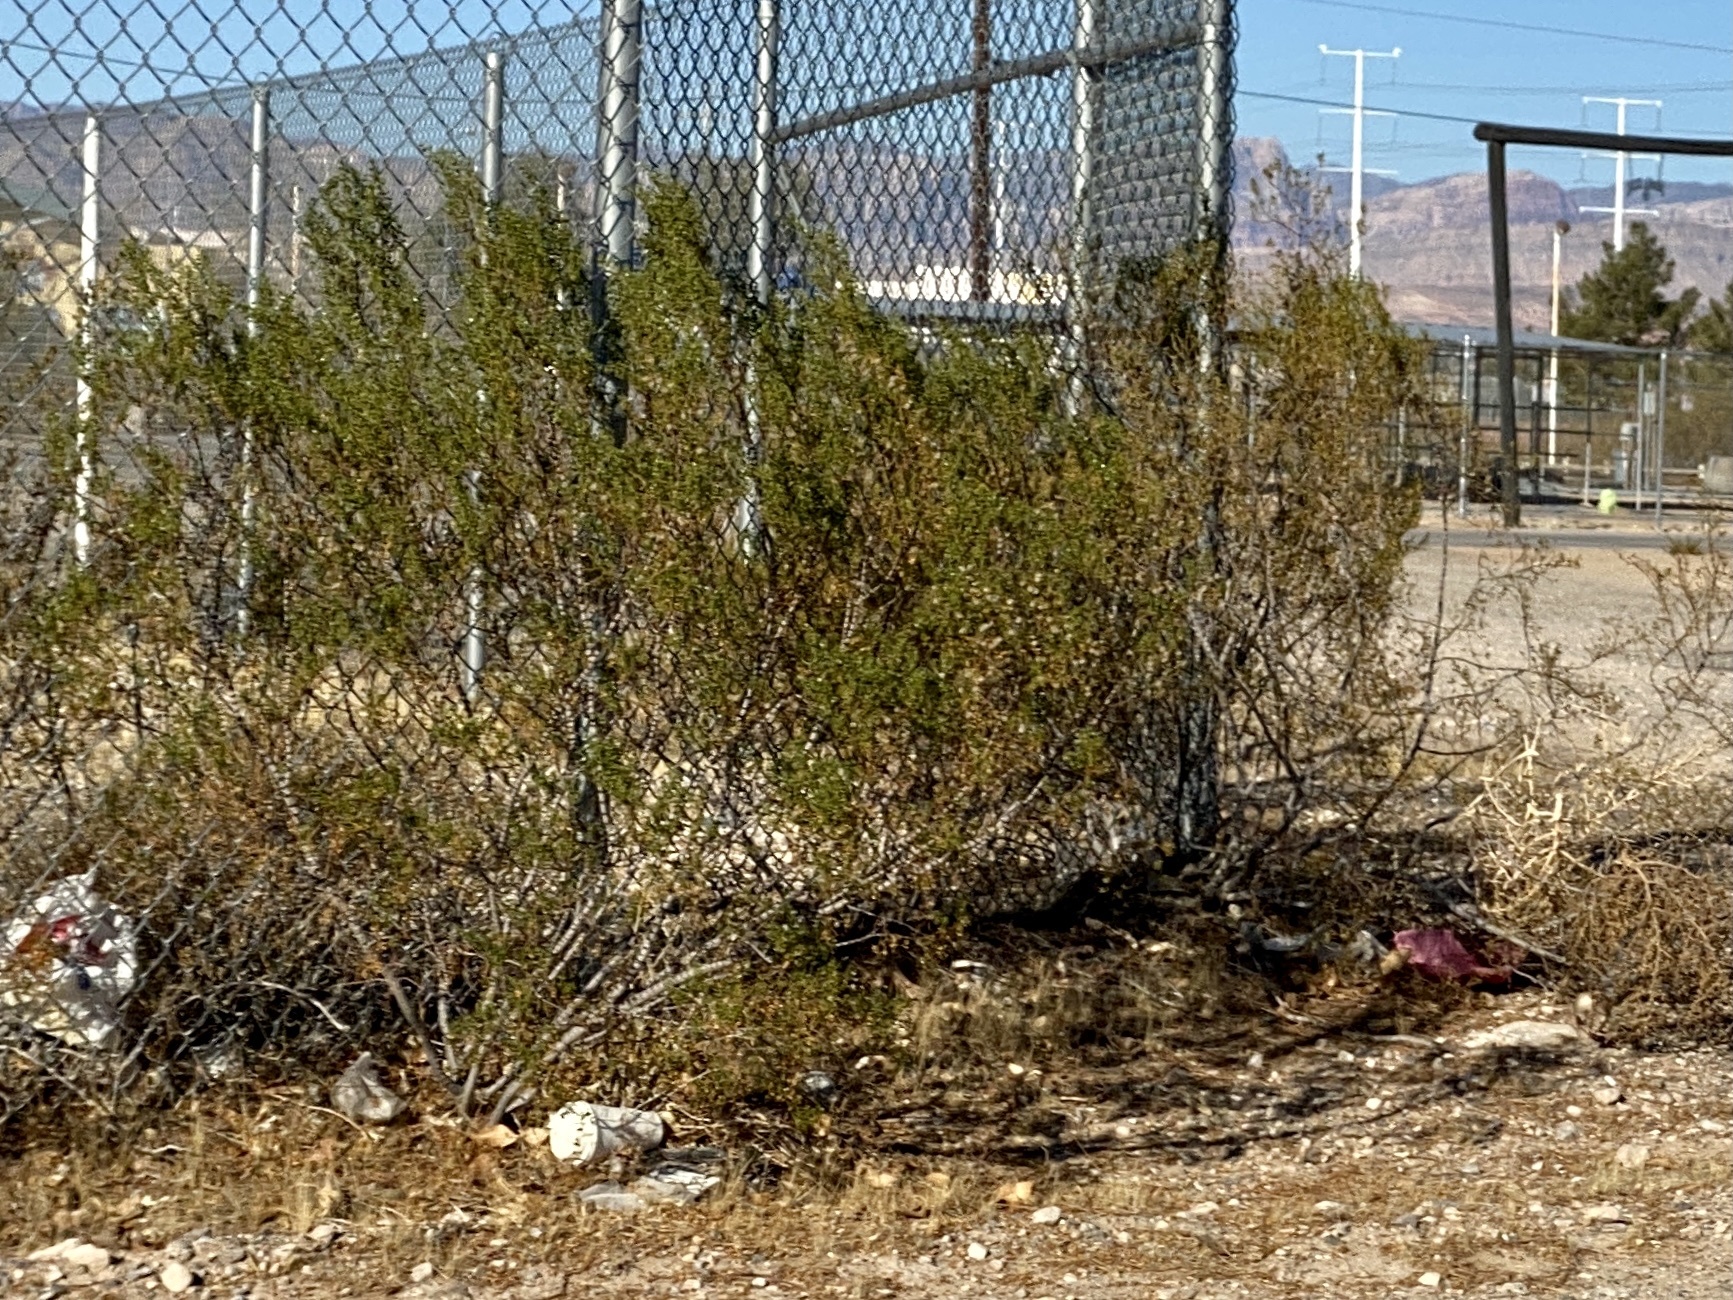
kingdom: Plantae
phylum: Tracheophyta
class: Magnoliopsida
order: Zygophyllales
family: Zygophyllaceae
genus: Larrea
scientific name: Larrea tridentata
